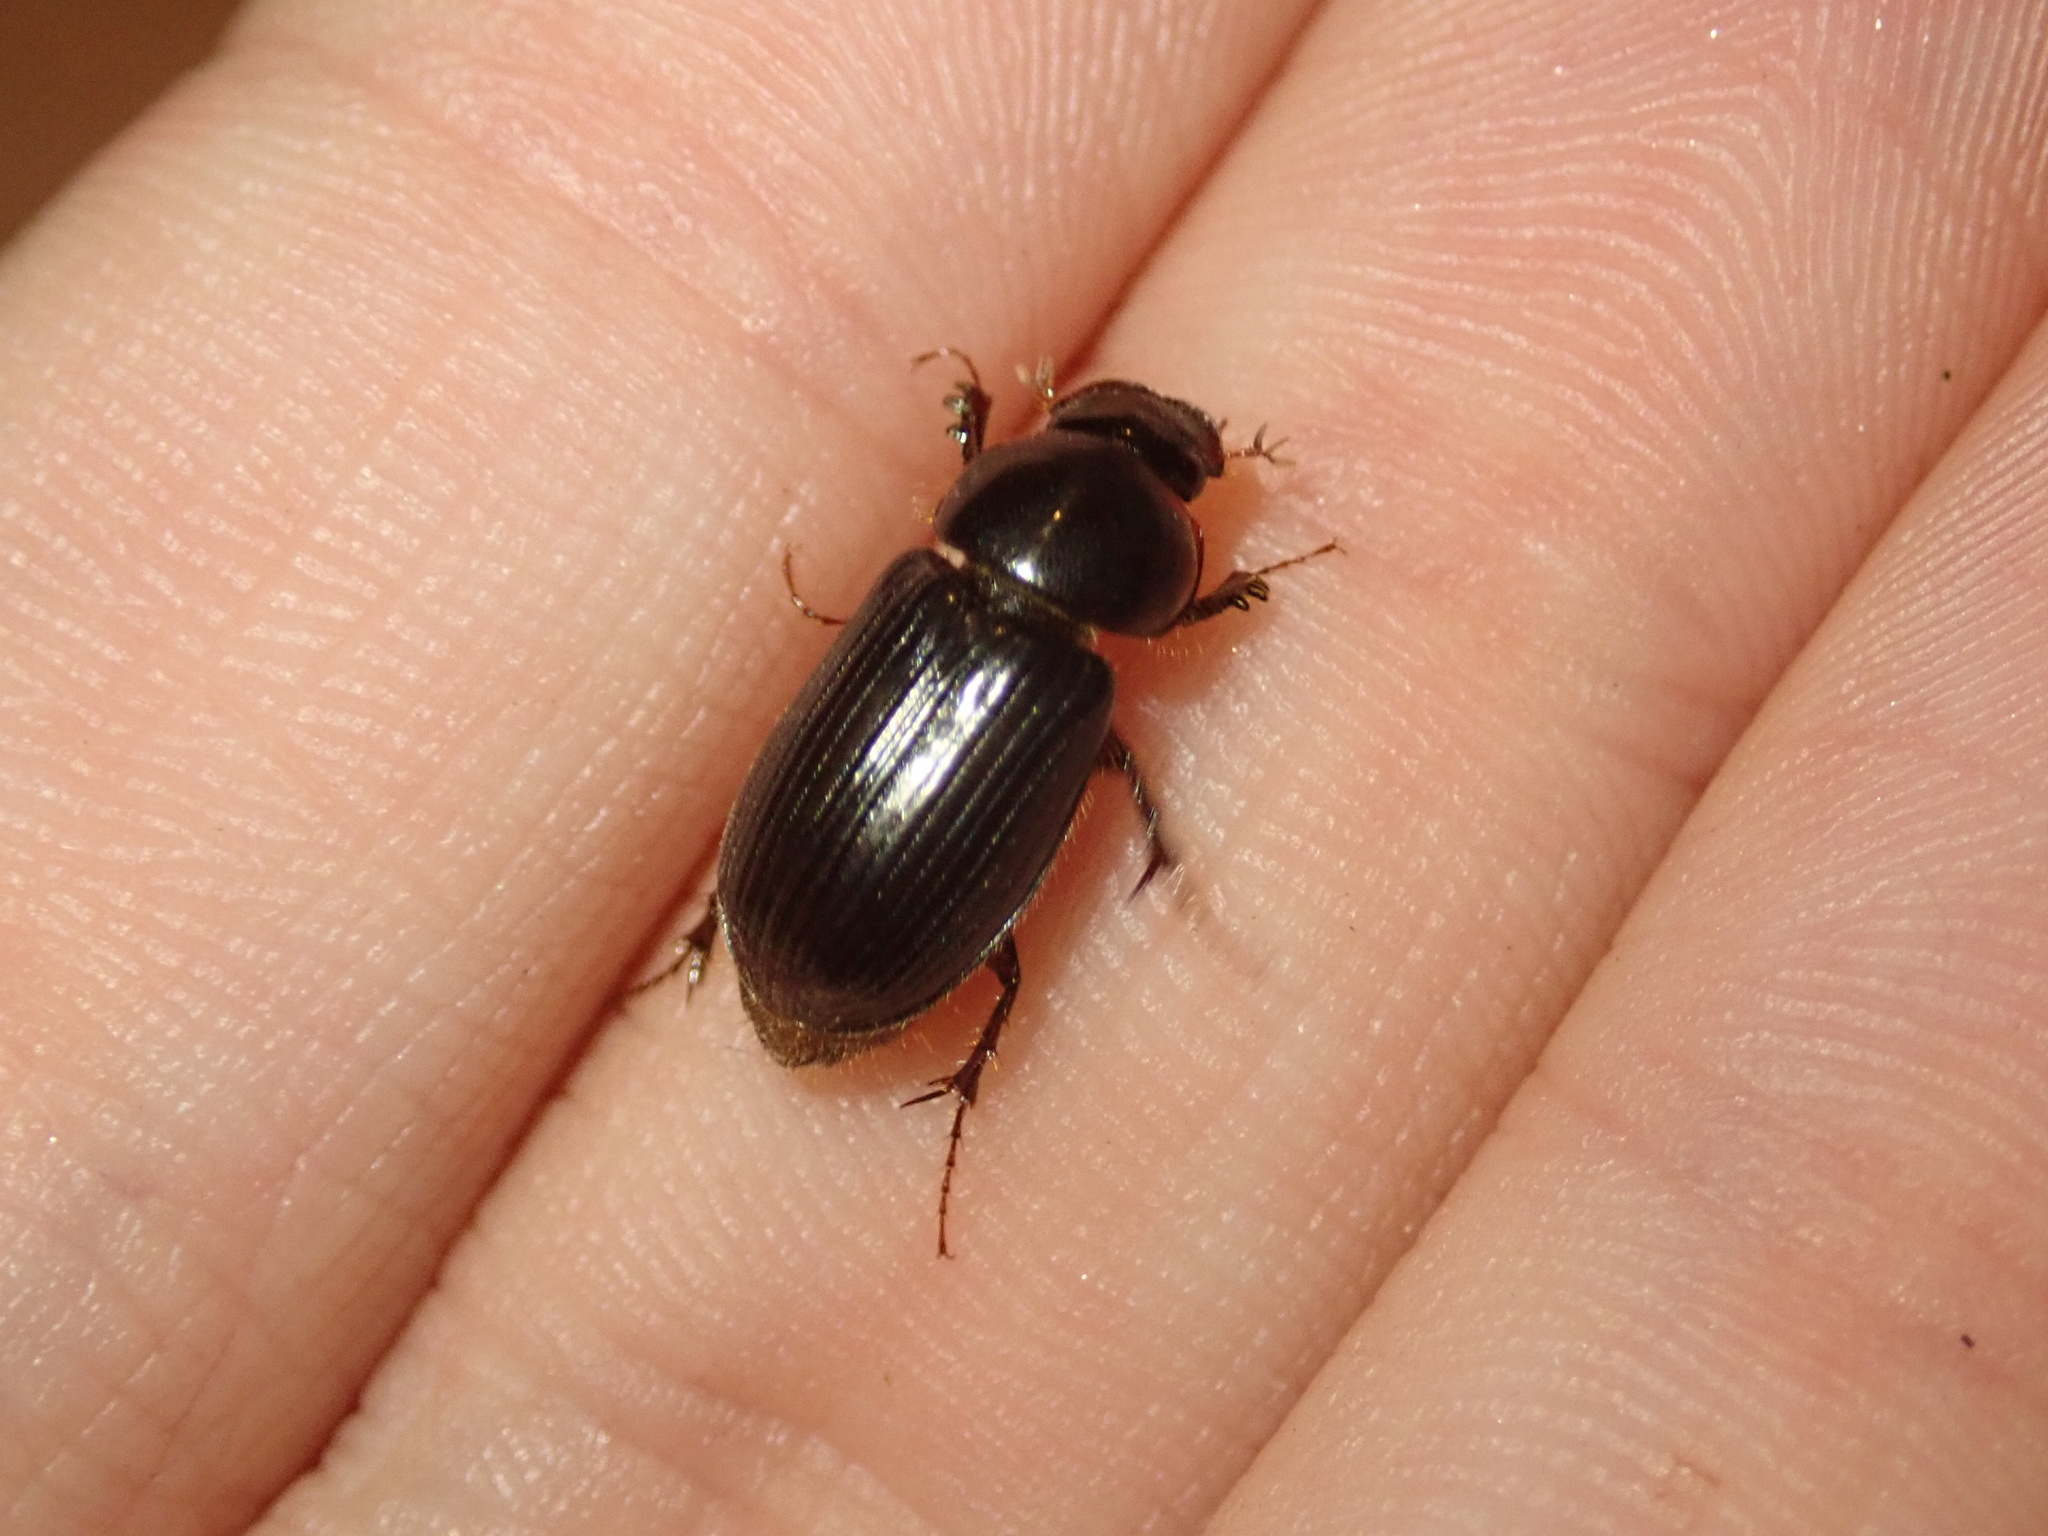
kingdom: Animalia
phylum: Arthropoda
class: Insecta
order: Coleoptera
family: Scarabaeidae
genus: Acrossidius
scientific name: Acrossidius tasmaniae
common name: Black-headed pasture cockchafer
